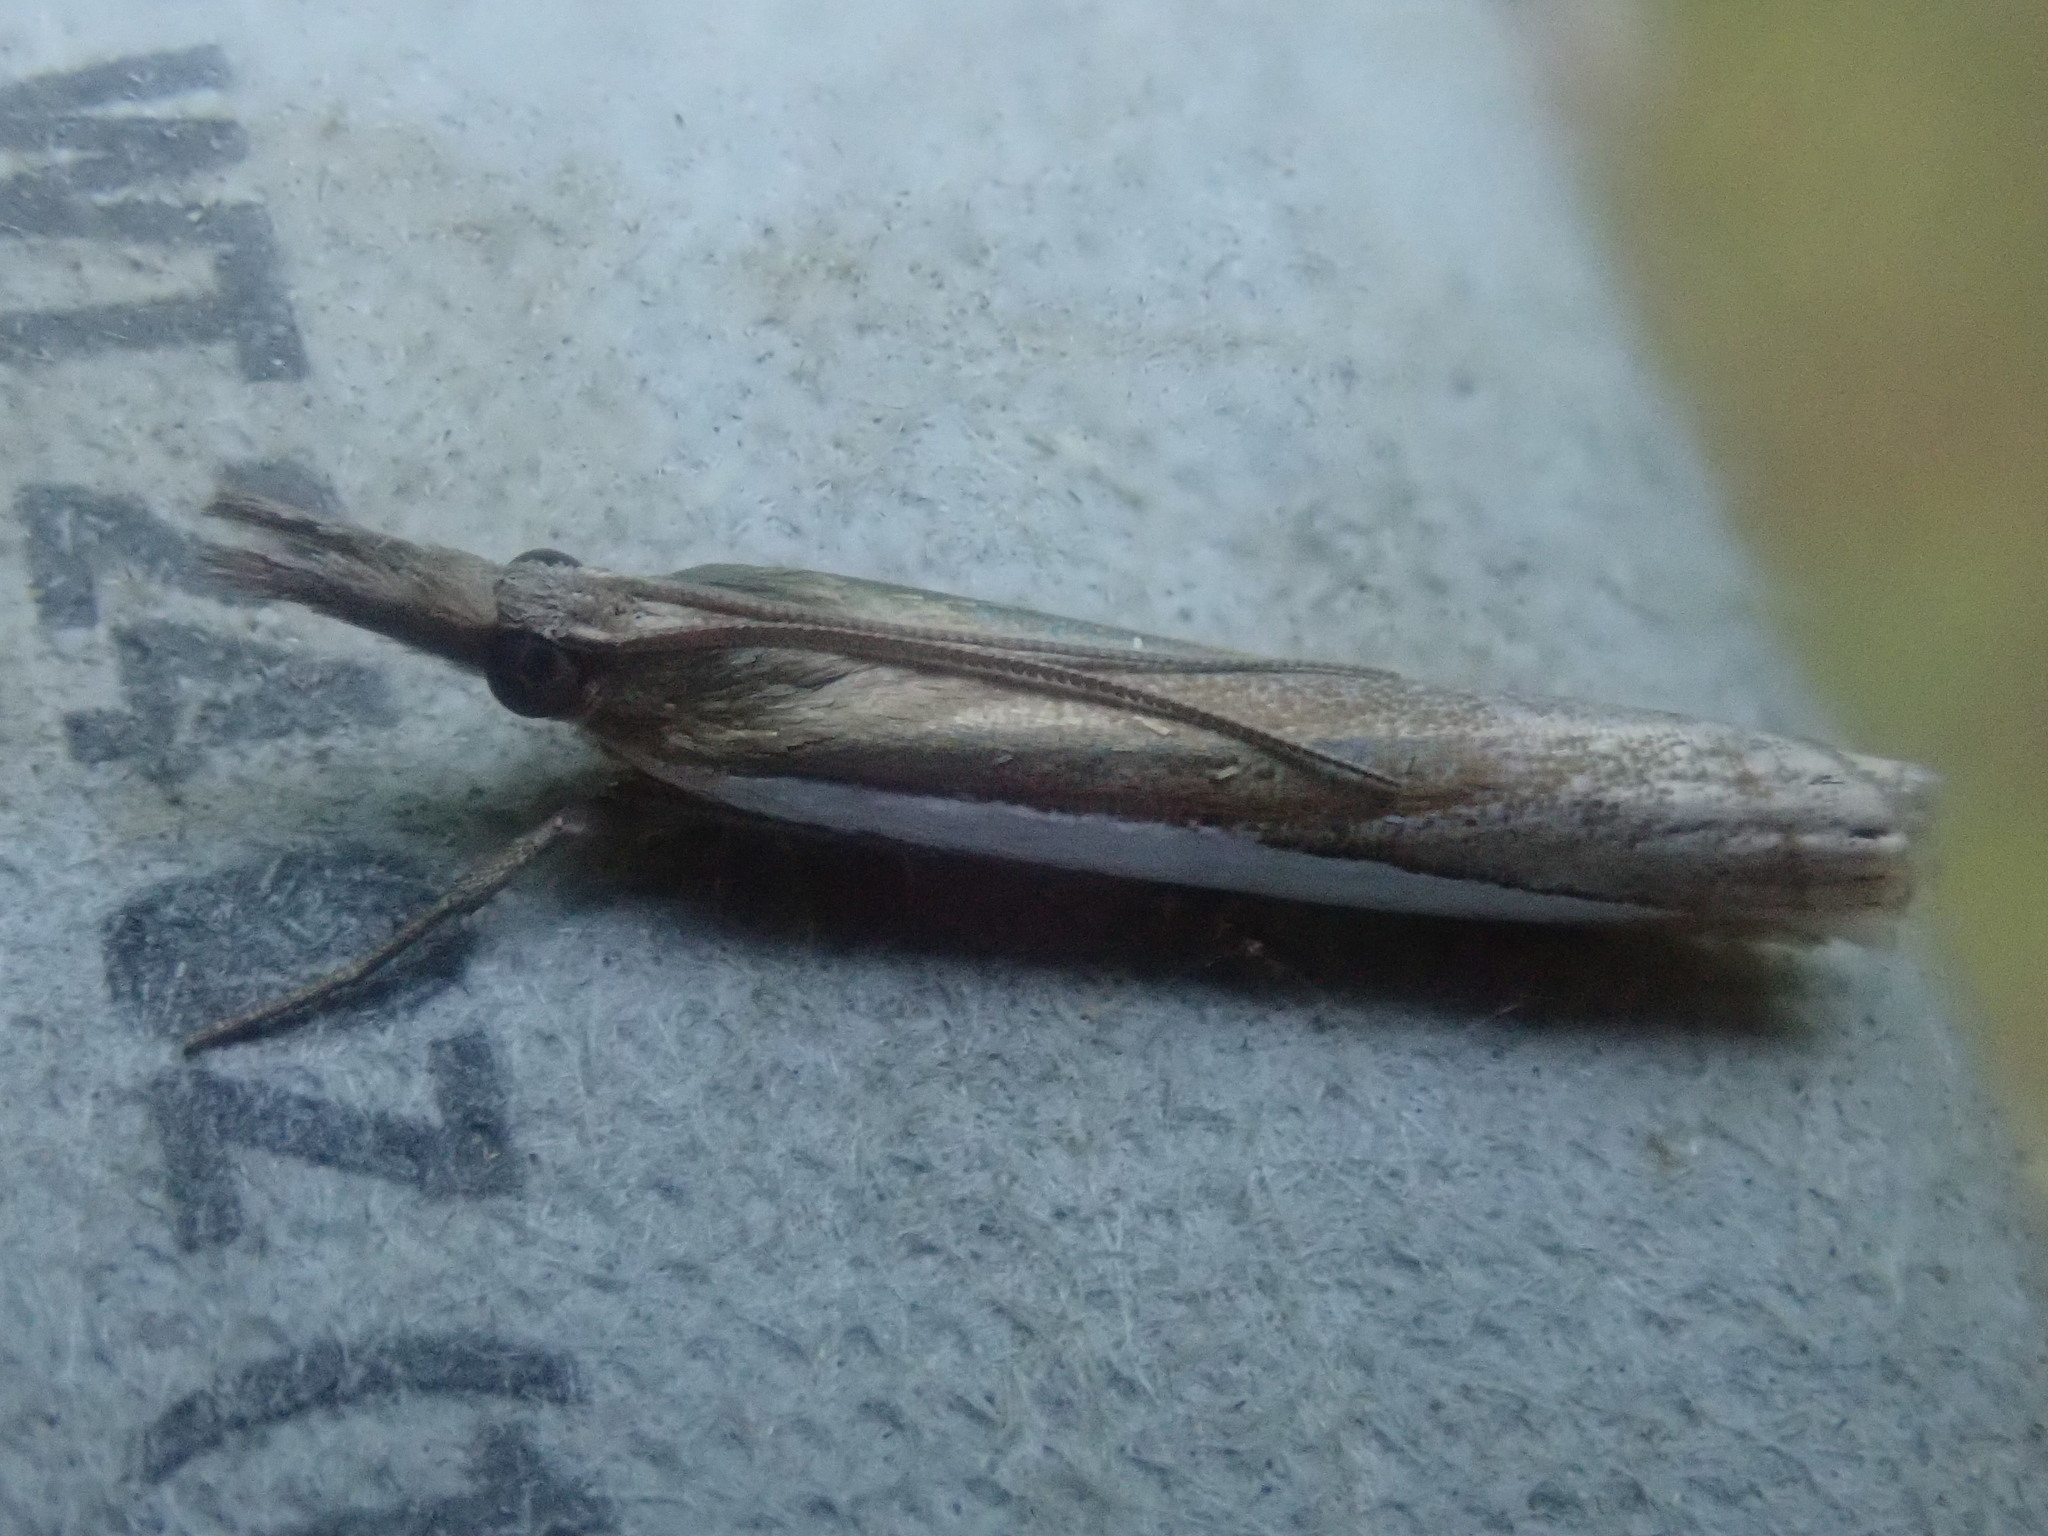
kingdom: Animalia
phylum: Arthropoda
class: Insecta
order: Lepidoptera
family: Crambidae
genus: Crambus
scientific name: Crambus
